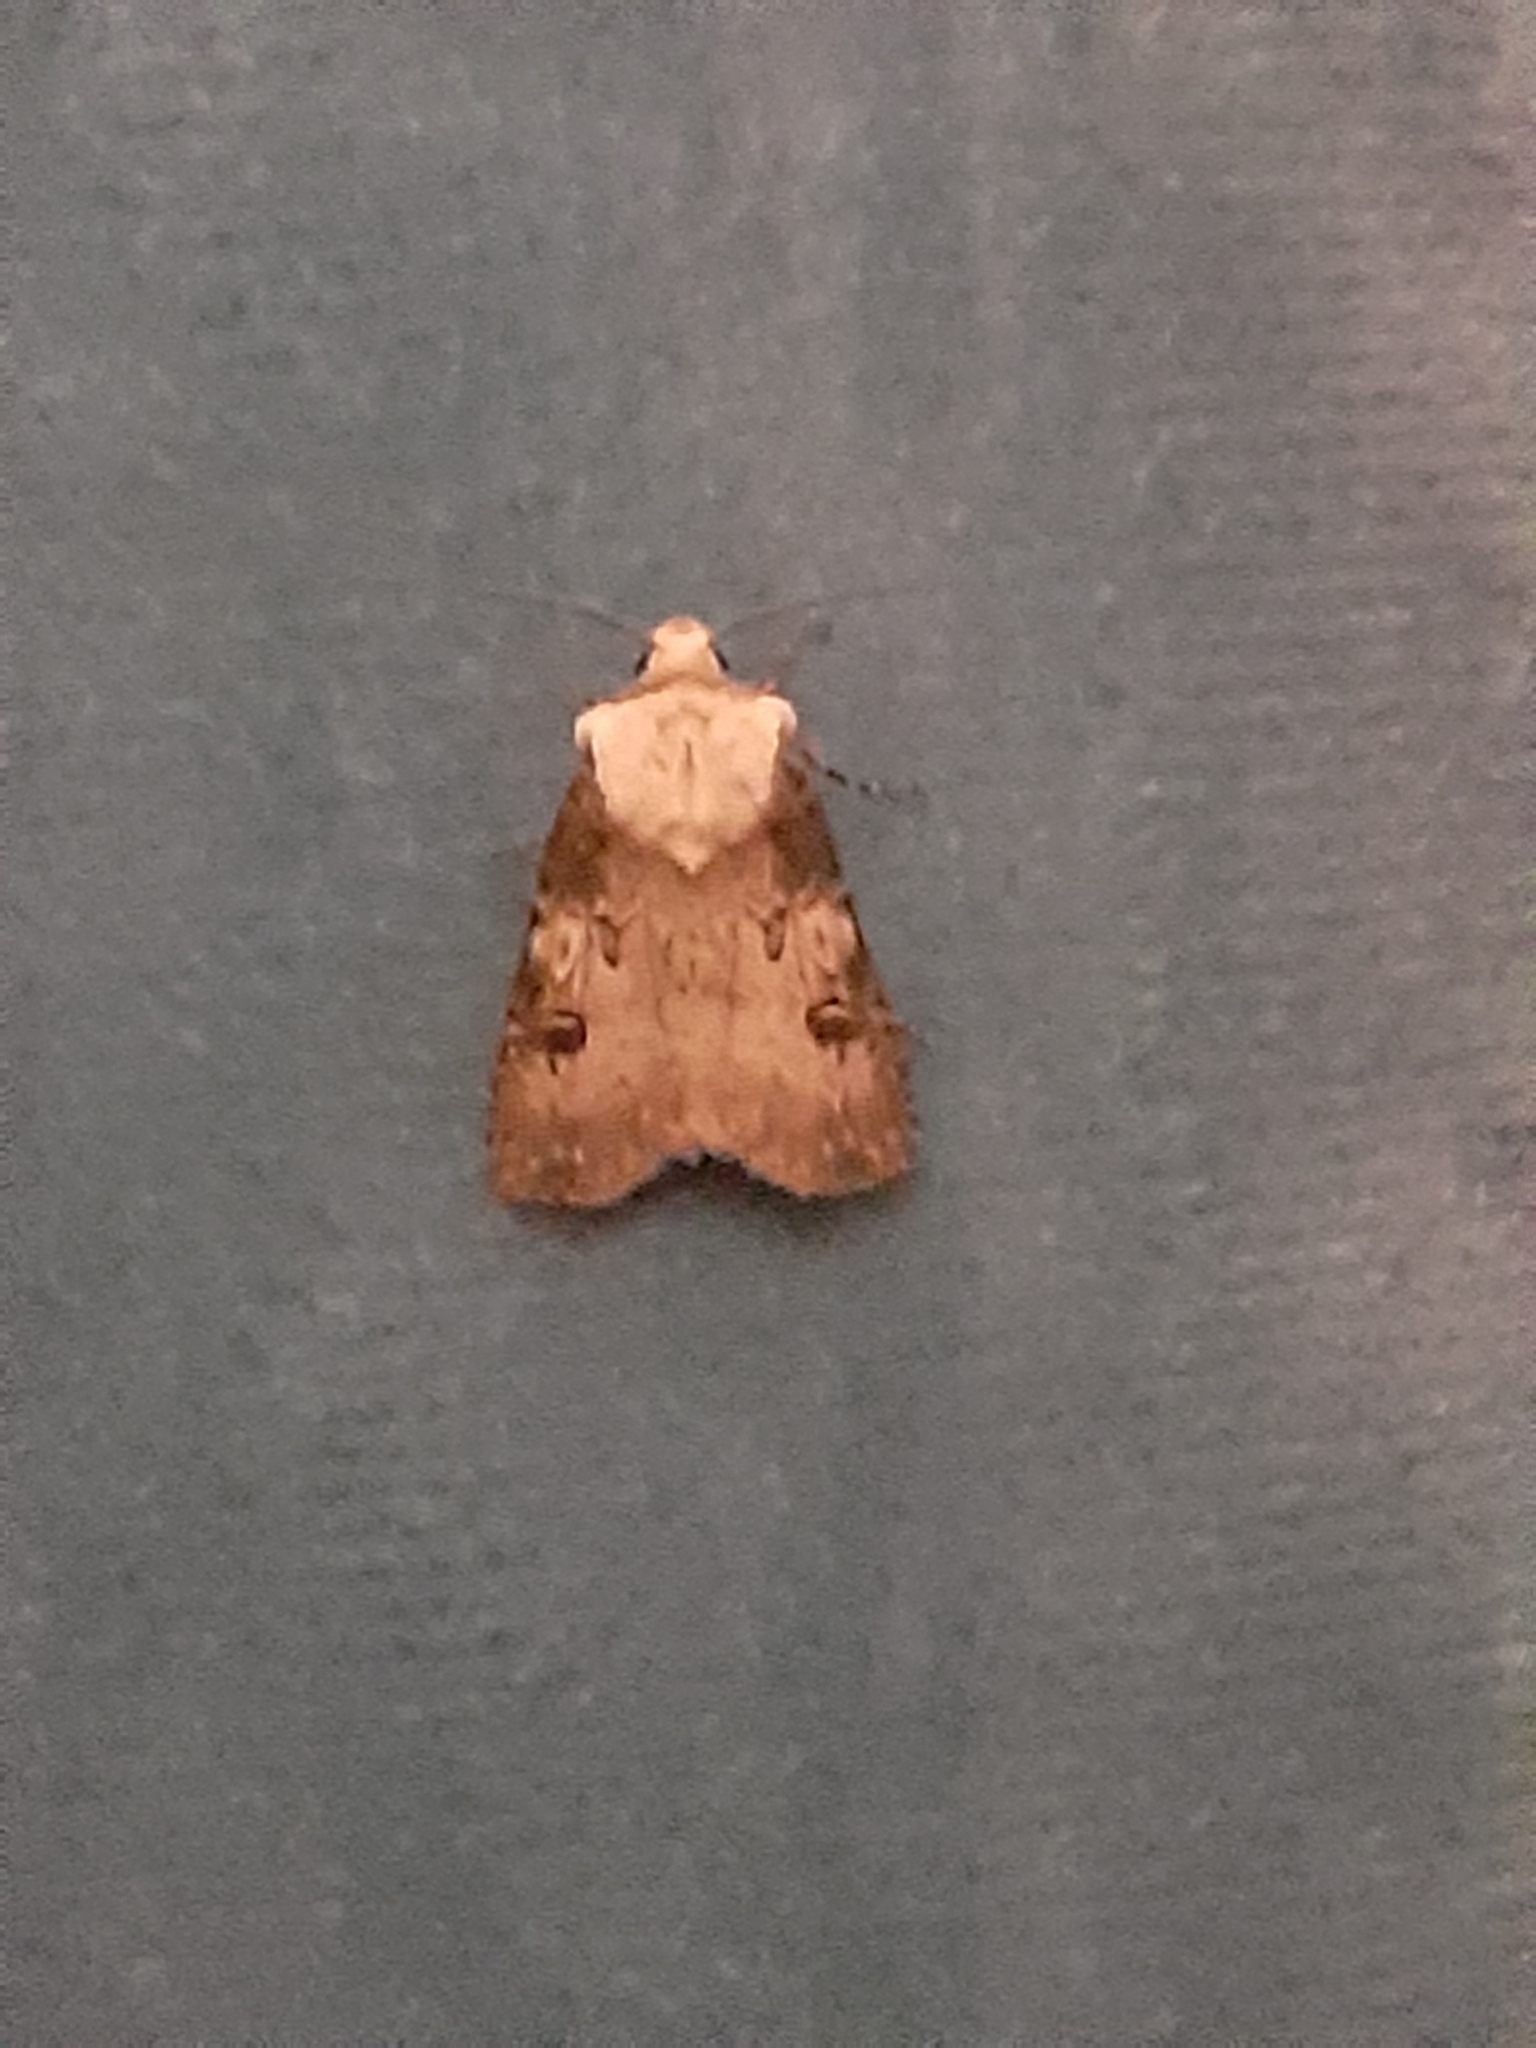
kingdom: Animalia
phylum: Arthropoda
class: Insecta
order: Lepidoptera
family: Noctuidae
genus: Agrotis
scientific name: Agrotis puta
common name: Shuttle-shaped dart
